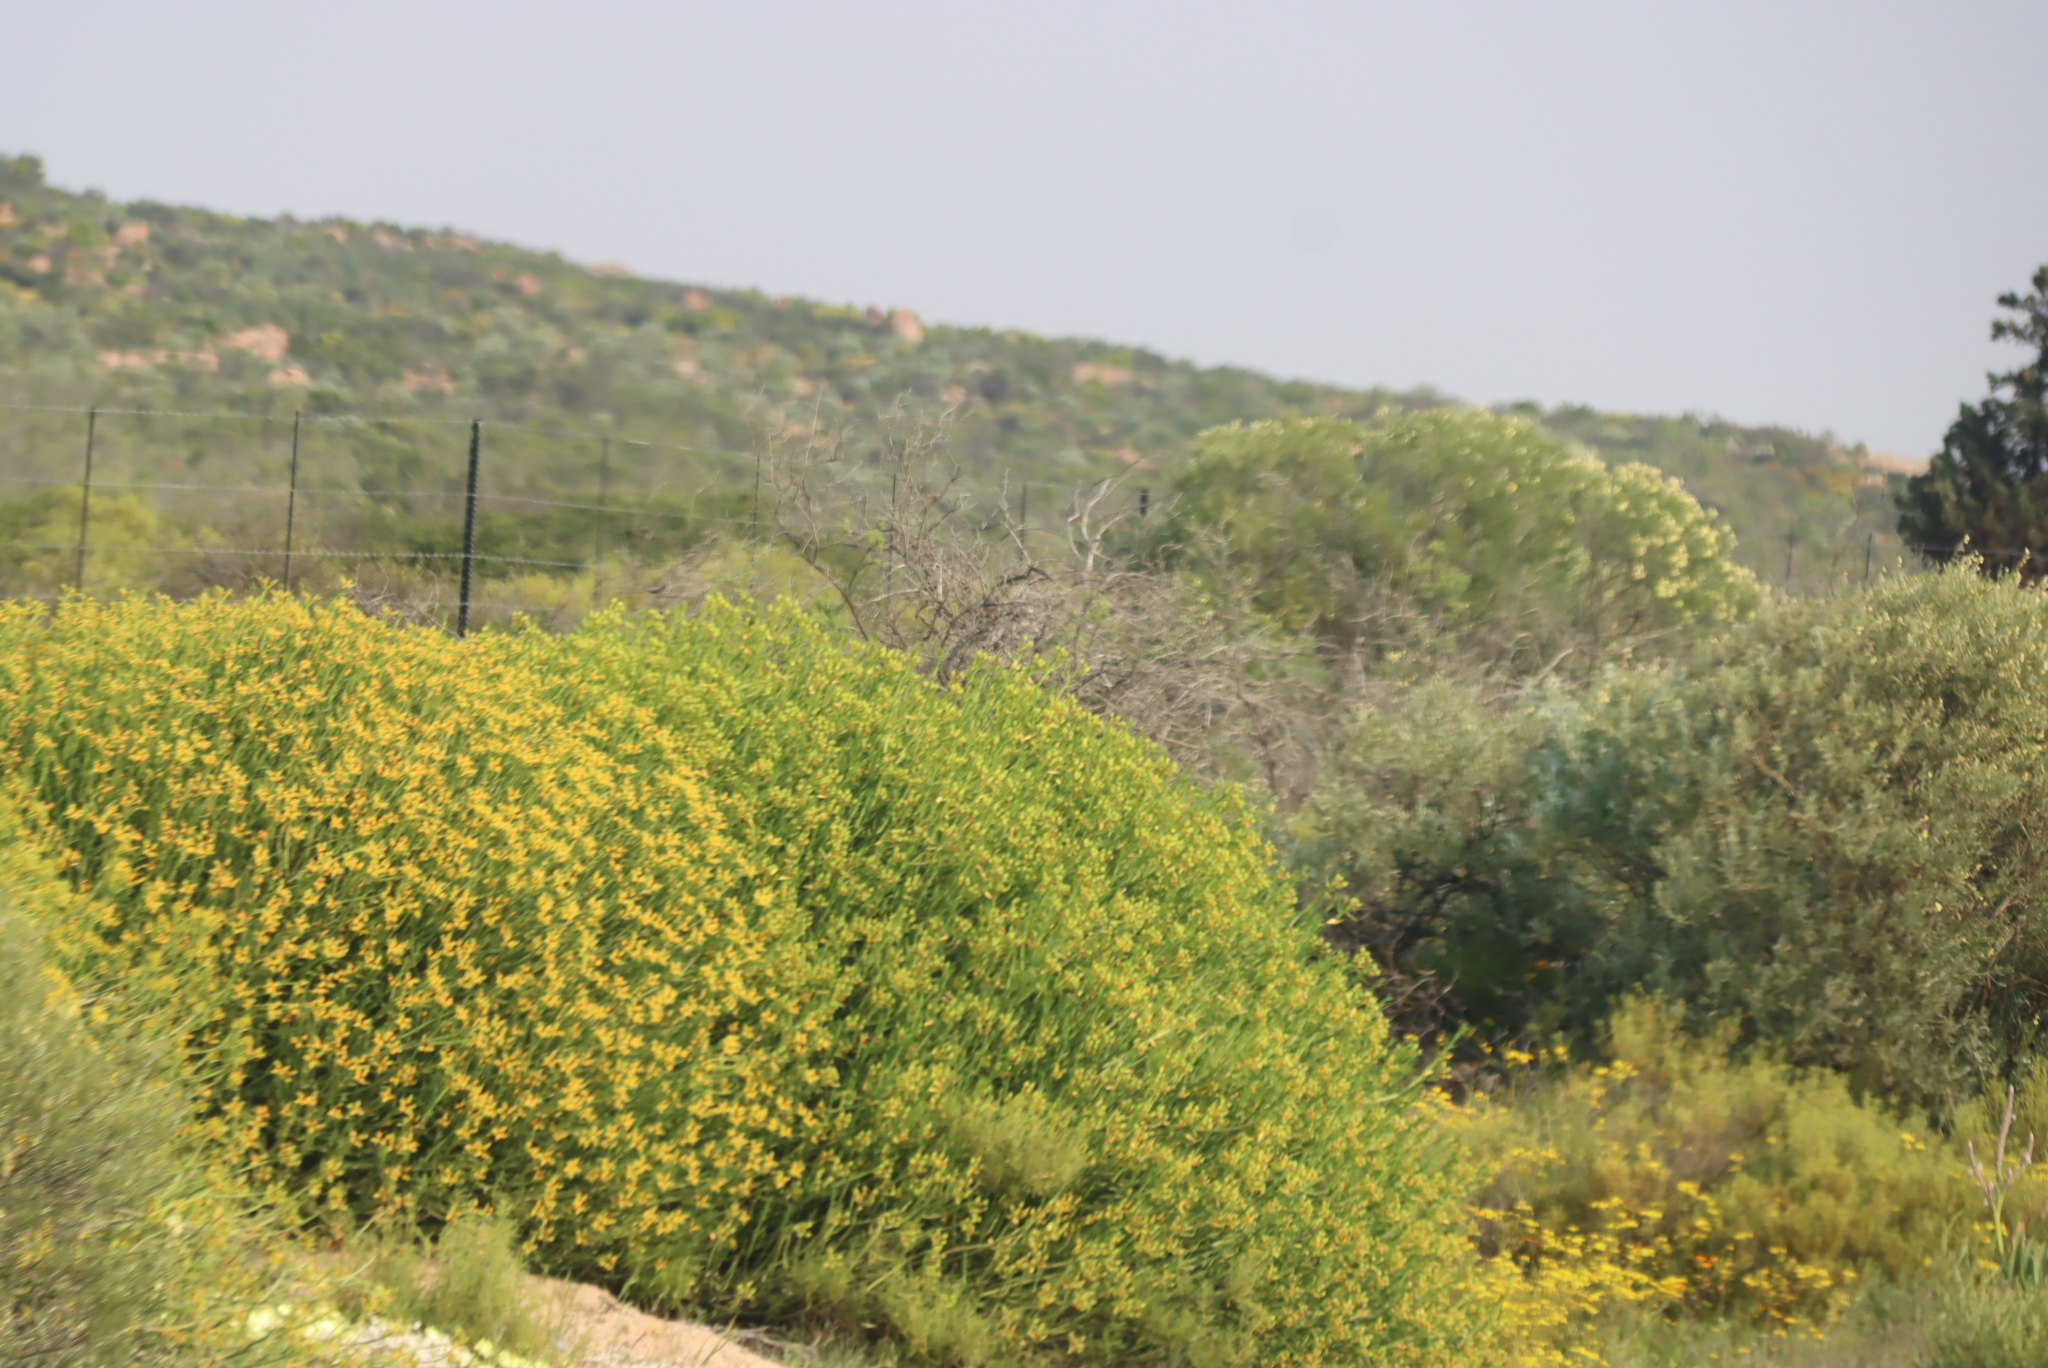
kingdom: Plantae
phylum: Tracheophyta
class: Magnoliopsida
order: Malpighiales
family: Euphorbiaceae
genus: Euphorbia
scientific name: Euphorbia mauritanica
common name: Jackal's-food
